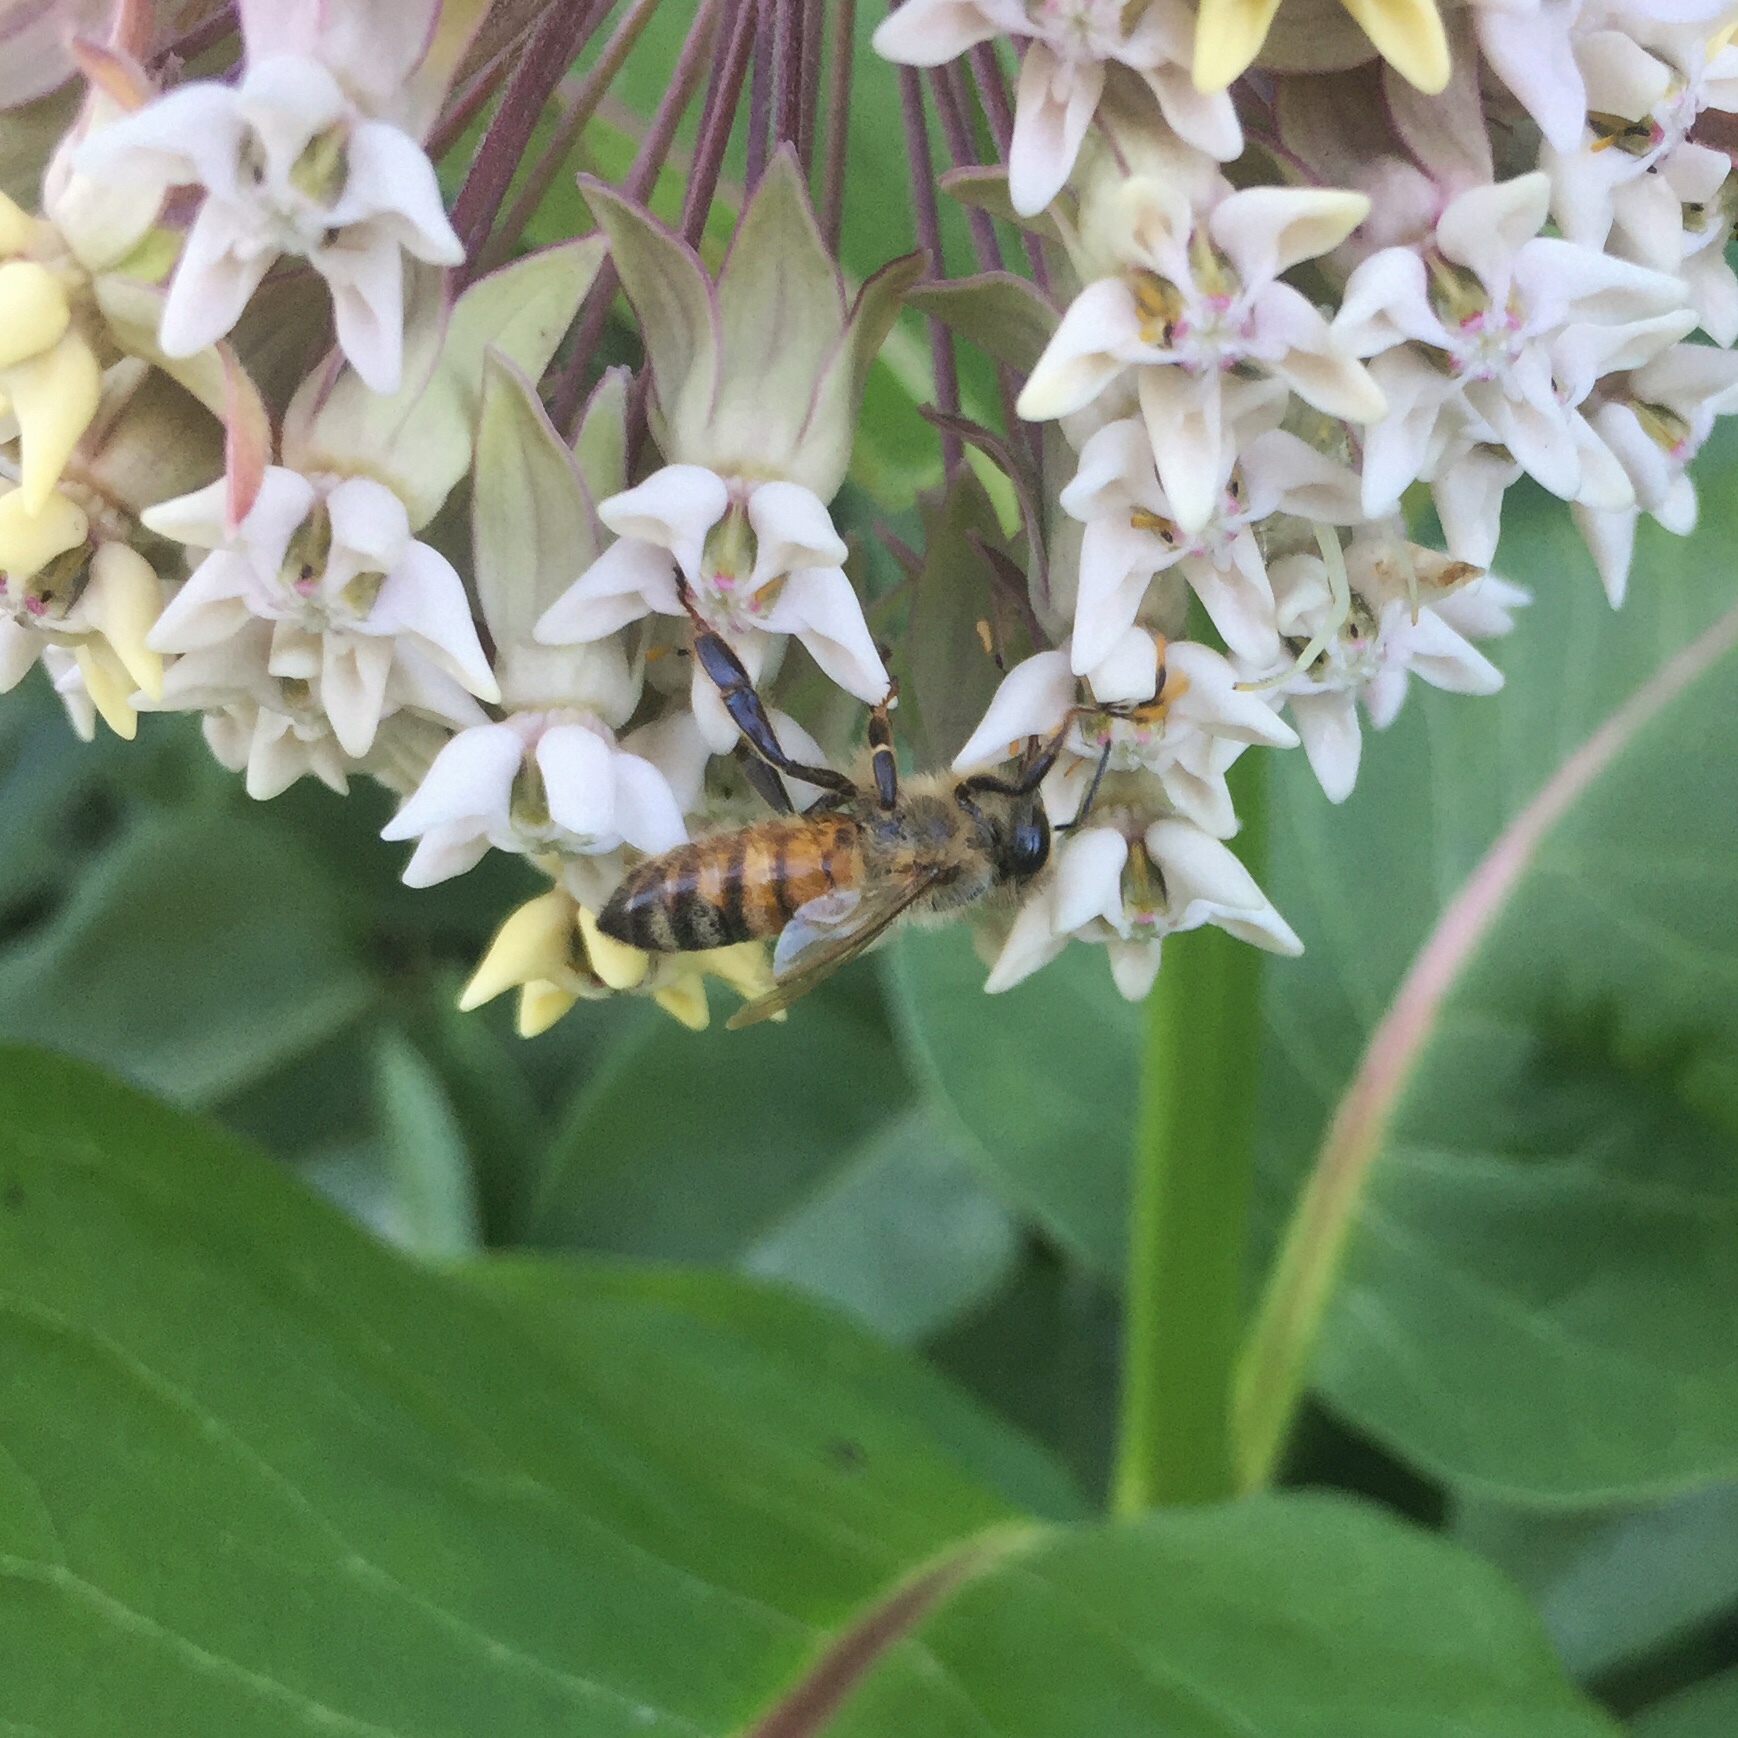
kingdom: Animalia
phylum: Arthropoda
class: Insecta
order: Hymenoptera
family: Apidae
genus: Apis
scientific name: Apis mellifera
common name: Honey bee
